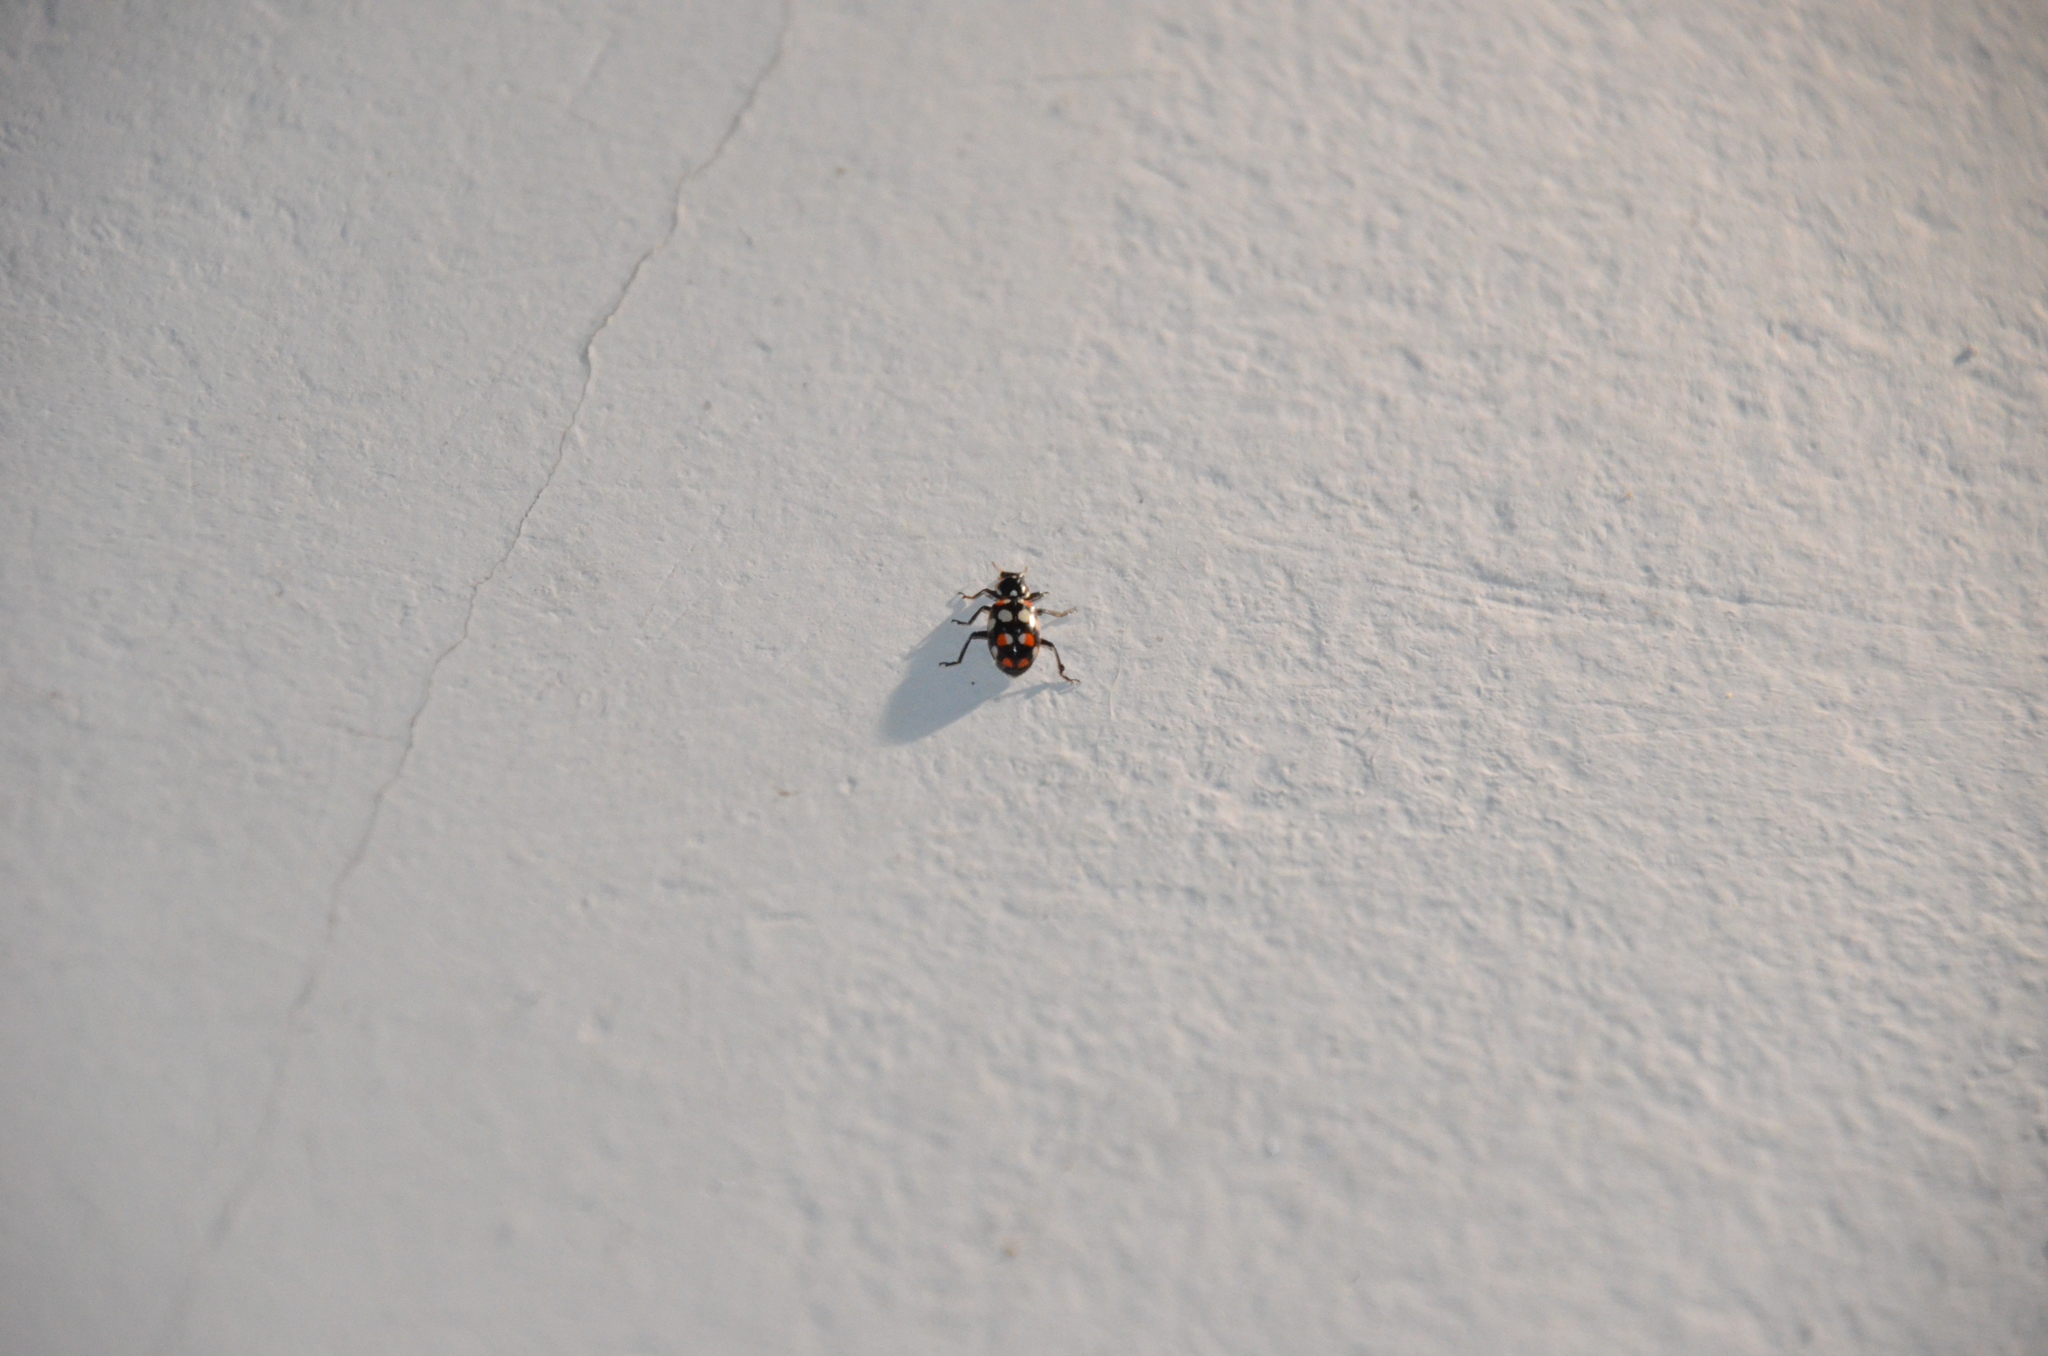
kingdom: Animalia
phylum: Arthropoda
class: Insecta
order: Coleoptera
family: Coccinellidae
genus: Eriopis
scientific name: Eriopis connexa
